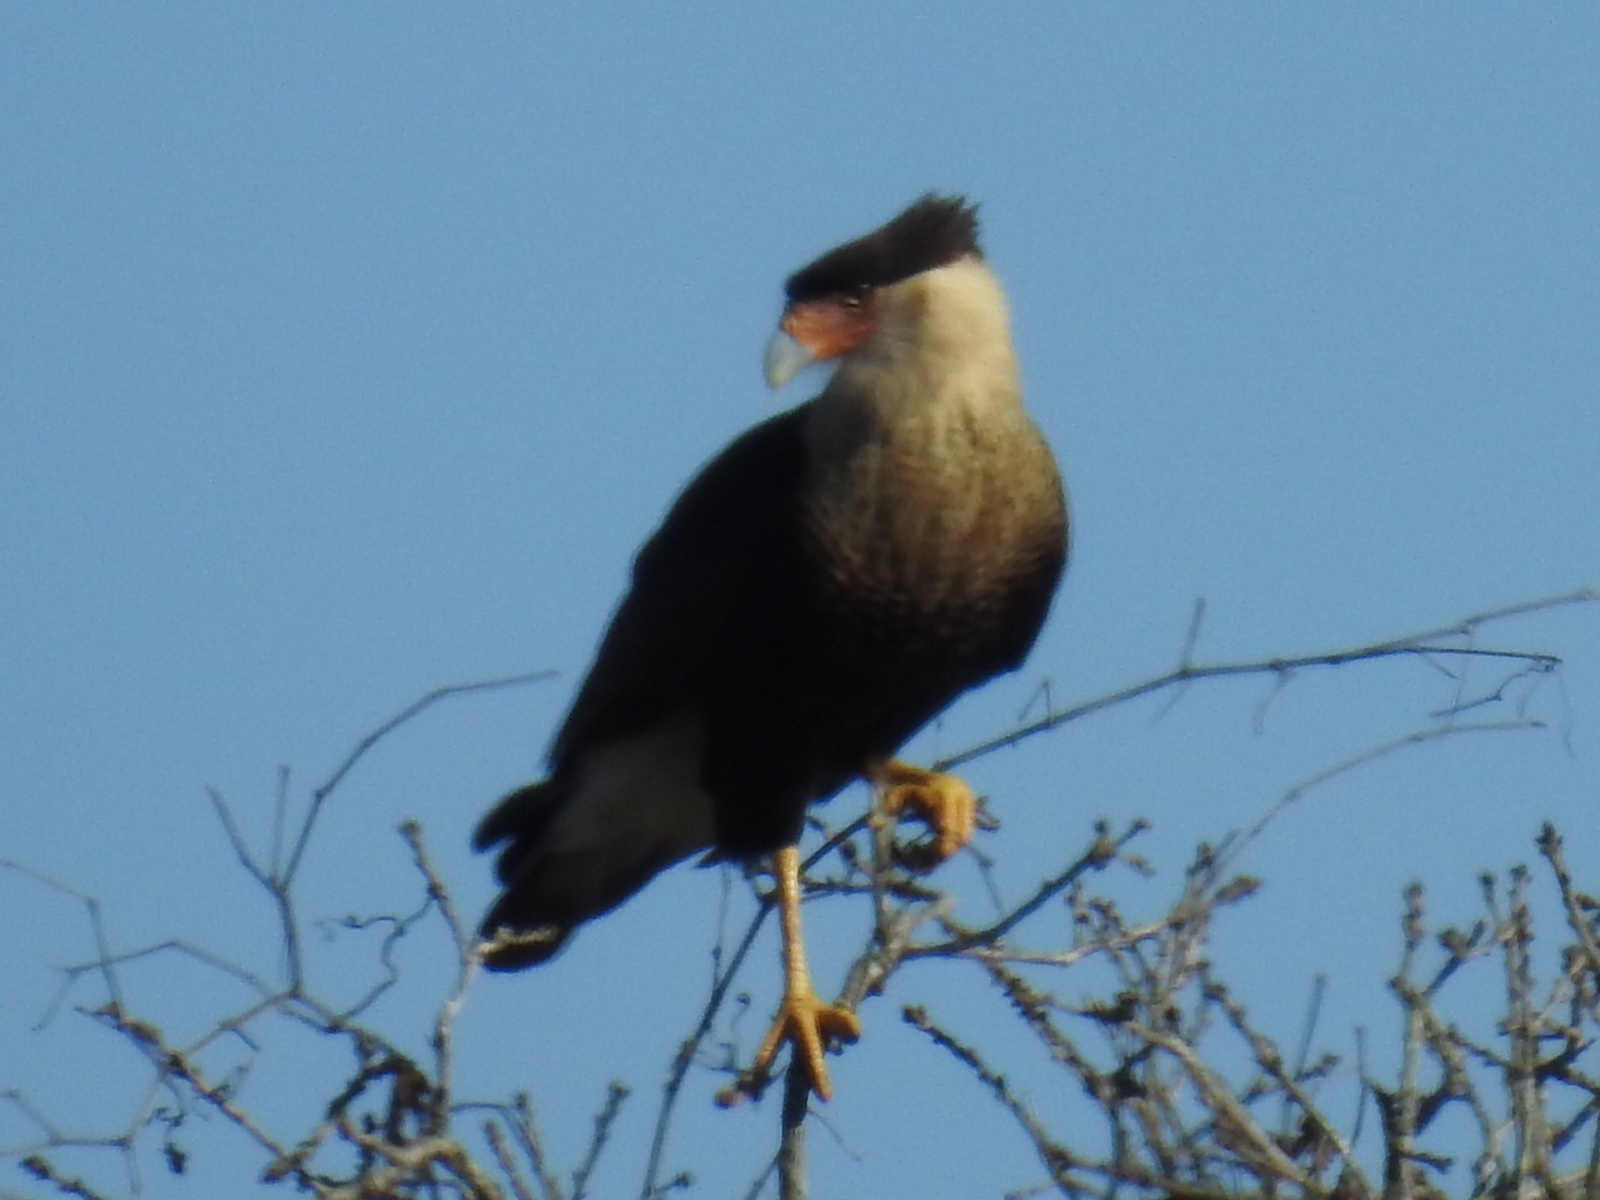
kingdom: Animalia
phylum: Chordata
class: Aves
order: Falconiformes
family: Falconidae
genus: Caracara
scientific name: Caracara plancus
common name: Southern caracara
